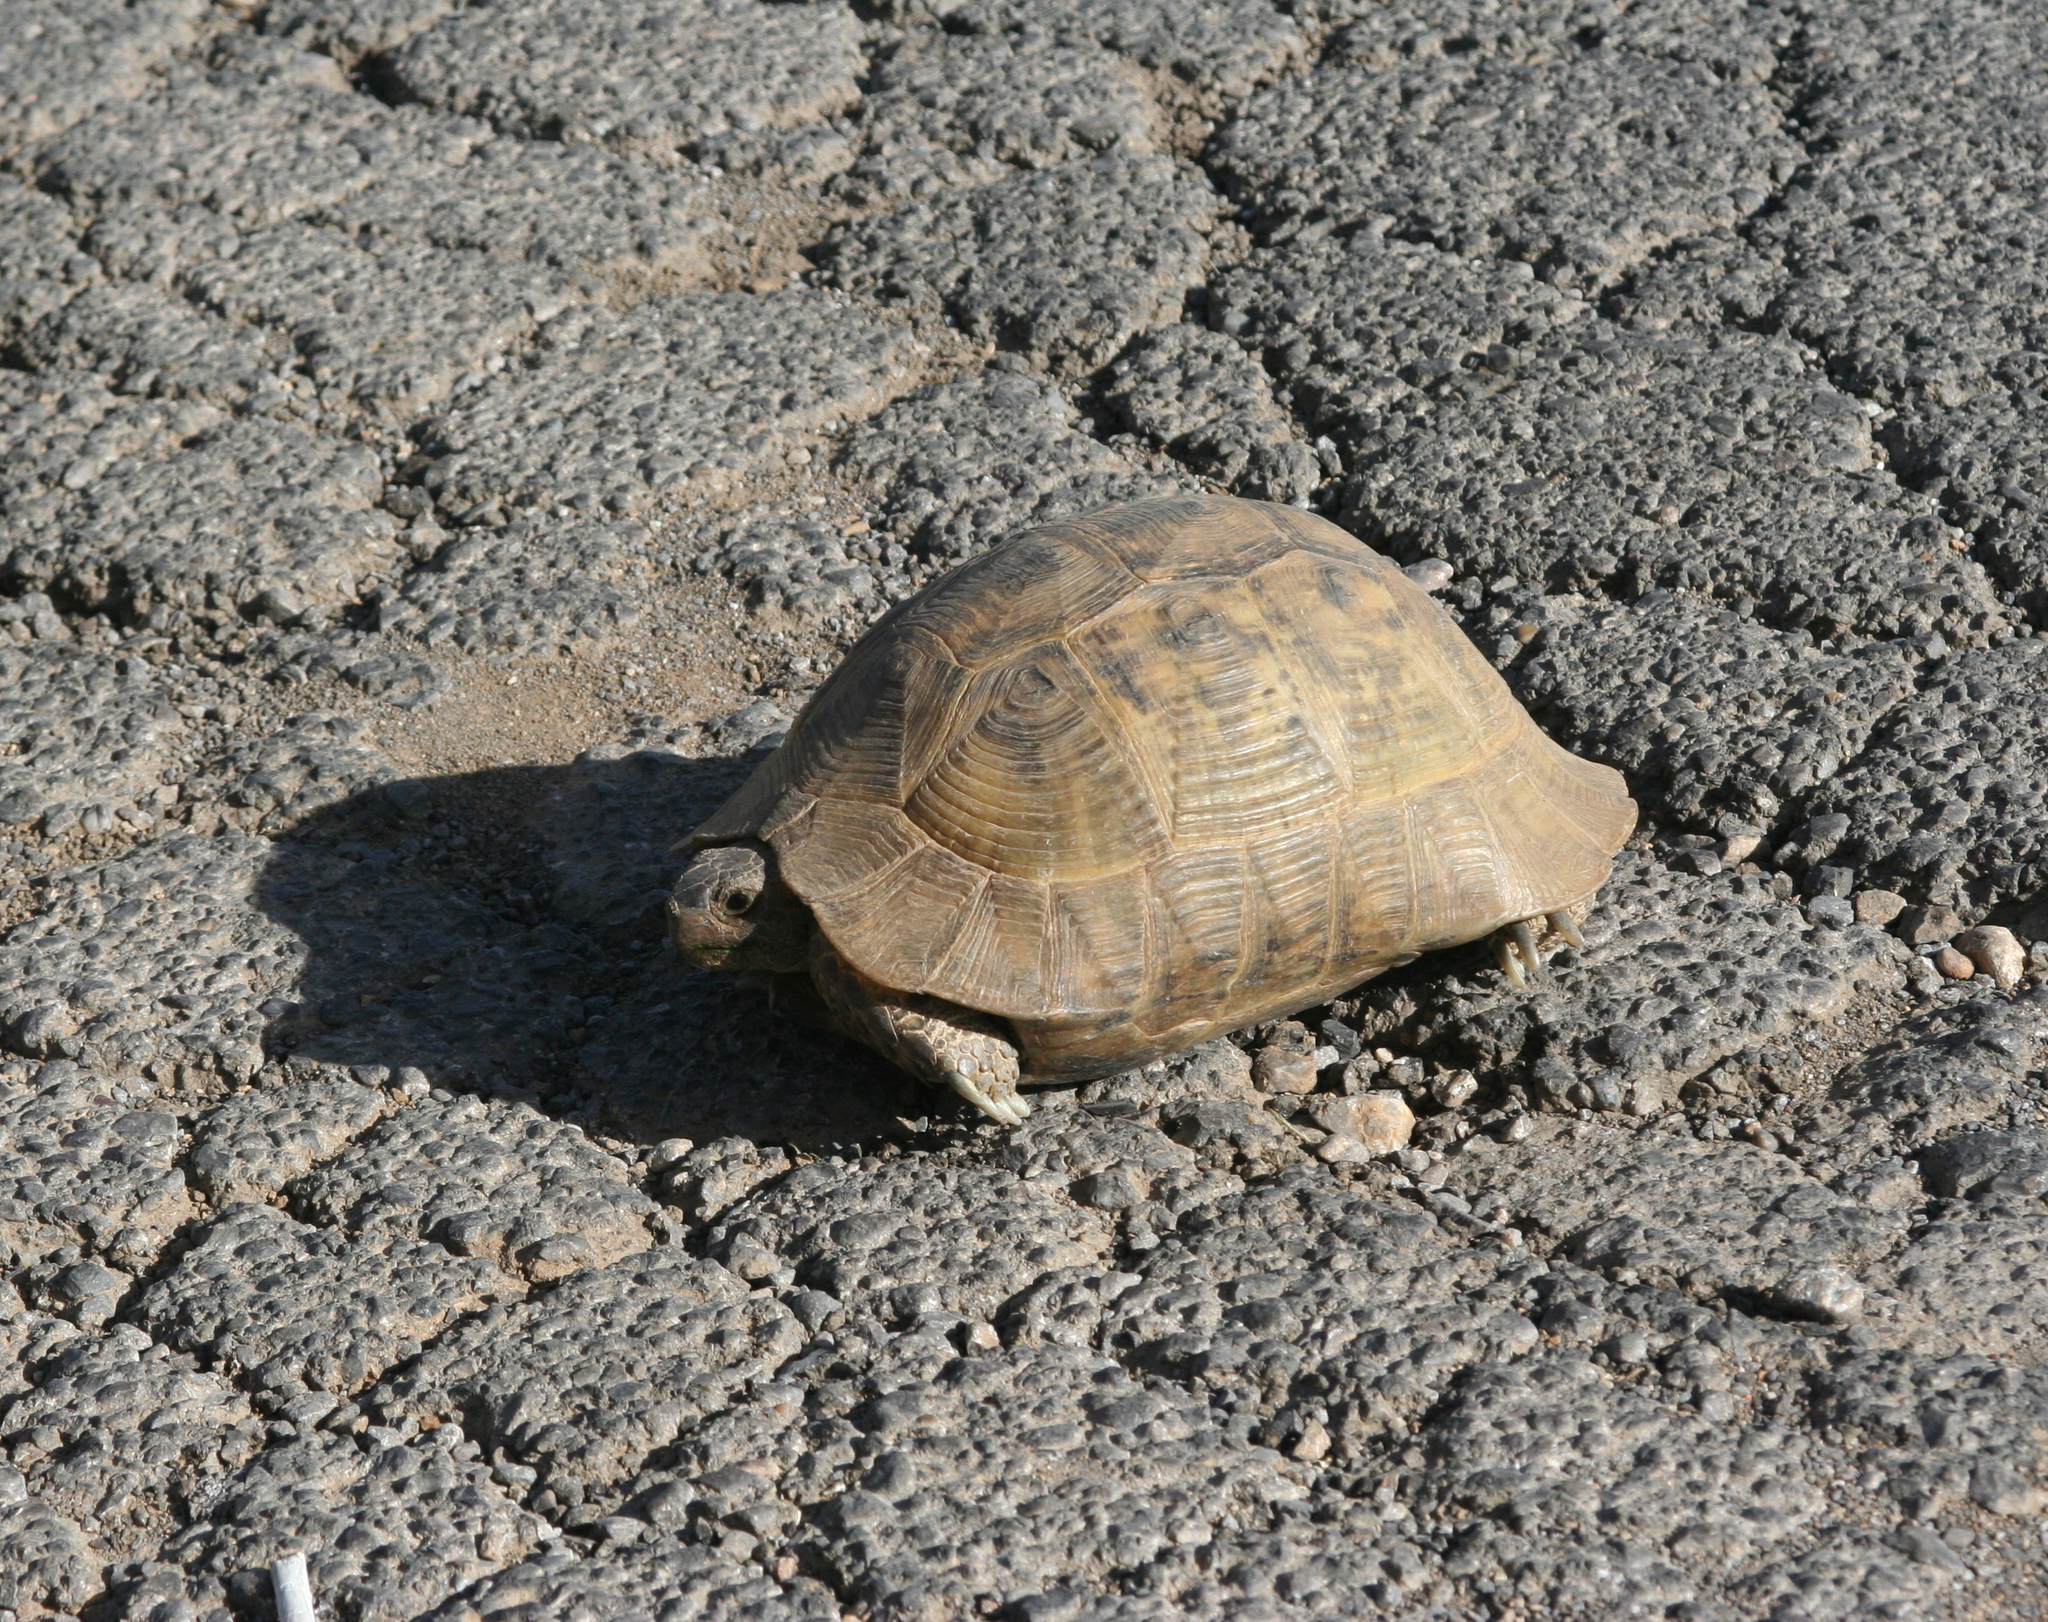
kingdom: Animalia
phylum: Chordata
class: Testudines
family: Testudinidae
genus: Testudo
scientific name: Testudo graeca
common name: Common tortoise
